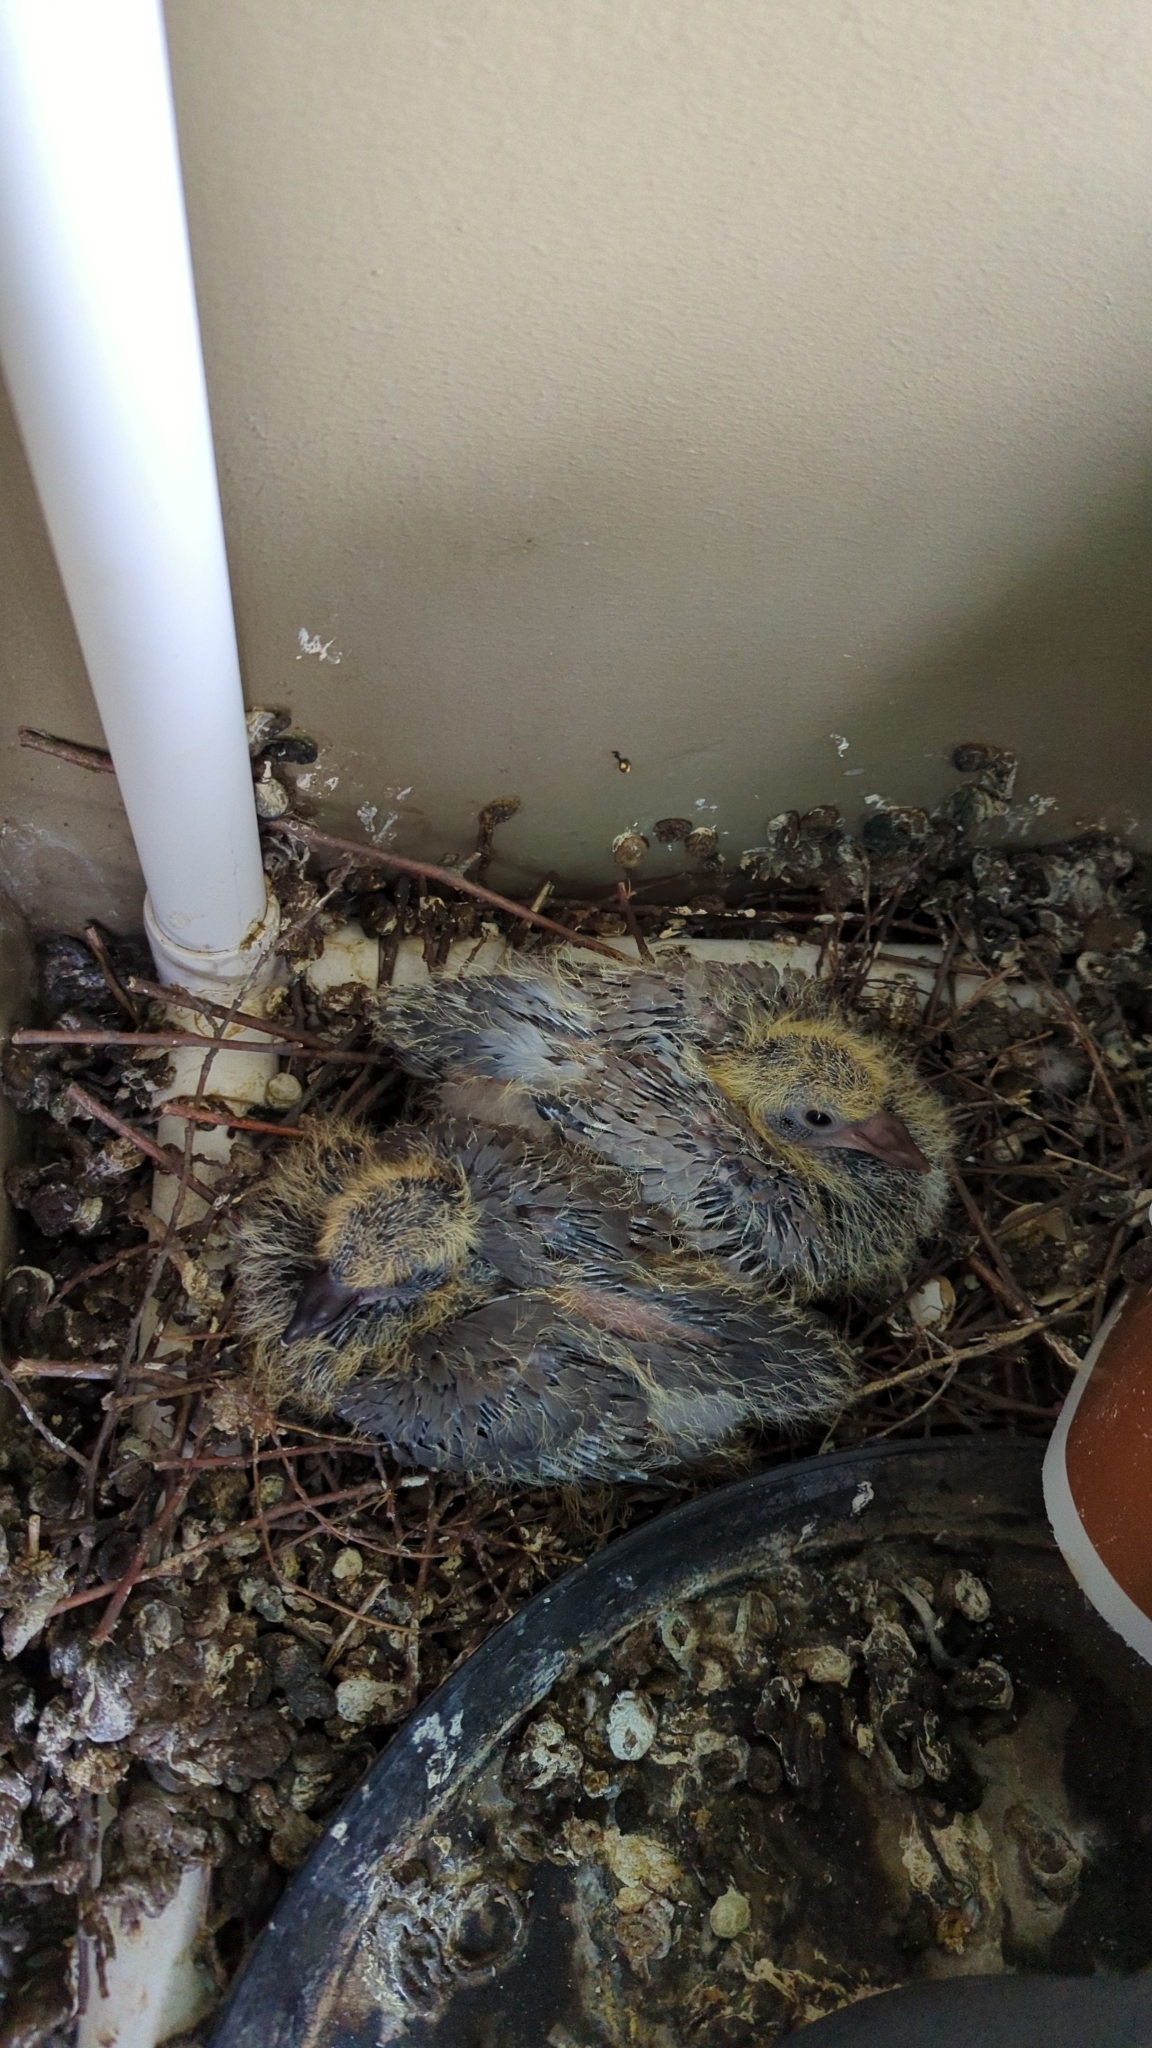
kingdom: Animalia
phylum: Chordata
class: Aves
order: Columbiformes
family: Columbidae
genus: Columba
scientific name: Columba livia
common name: Rock pigeon
